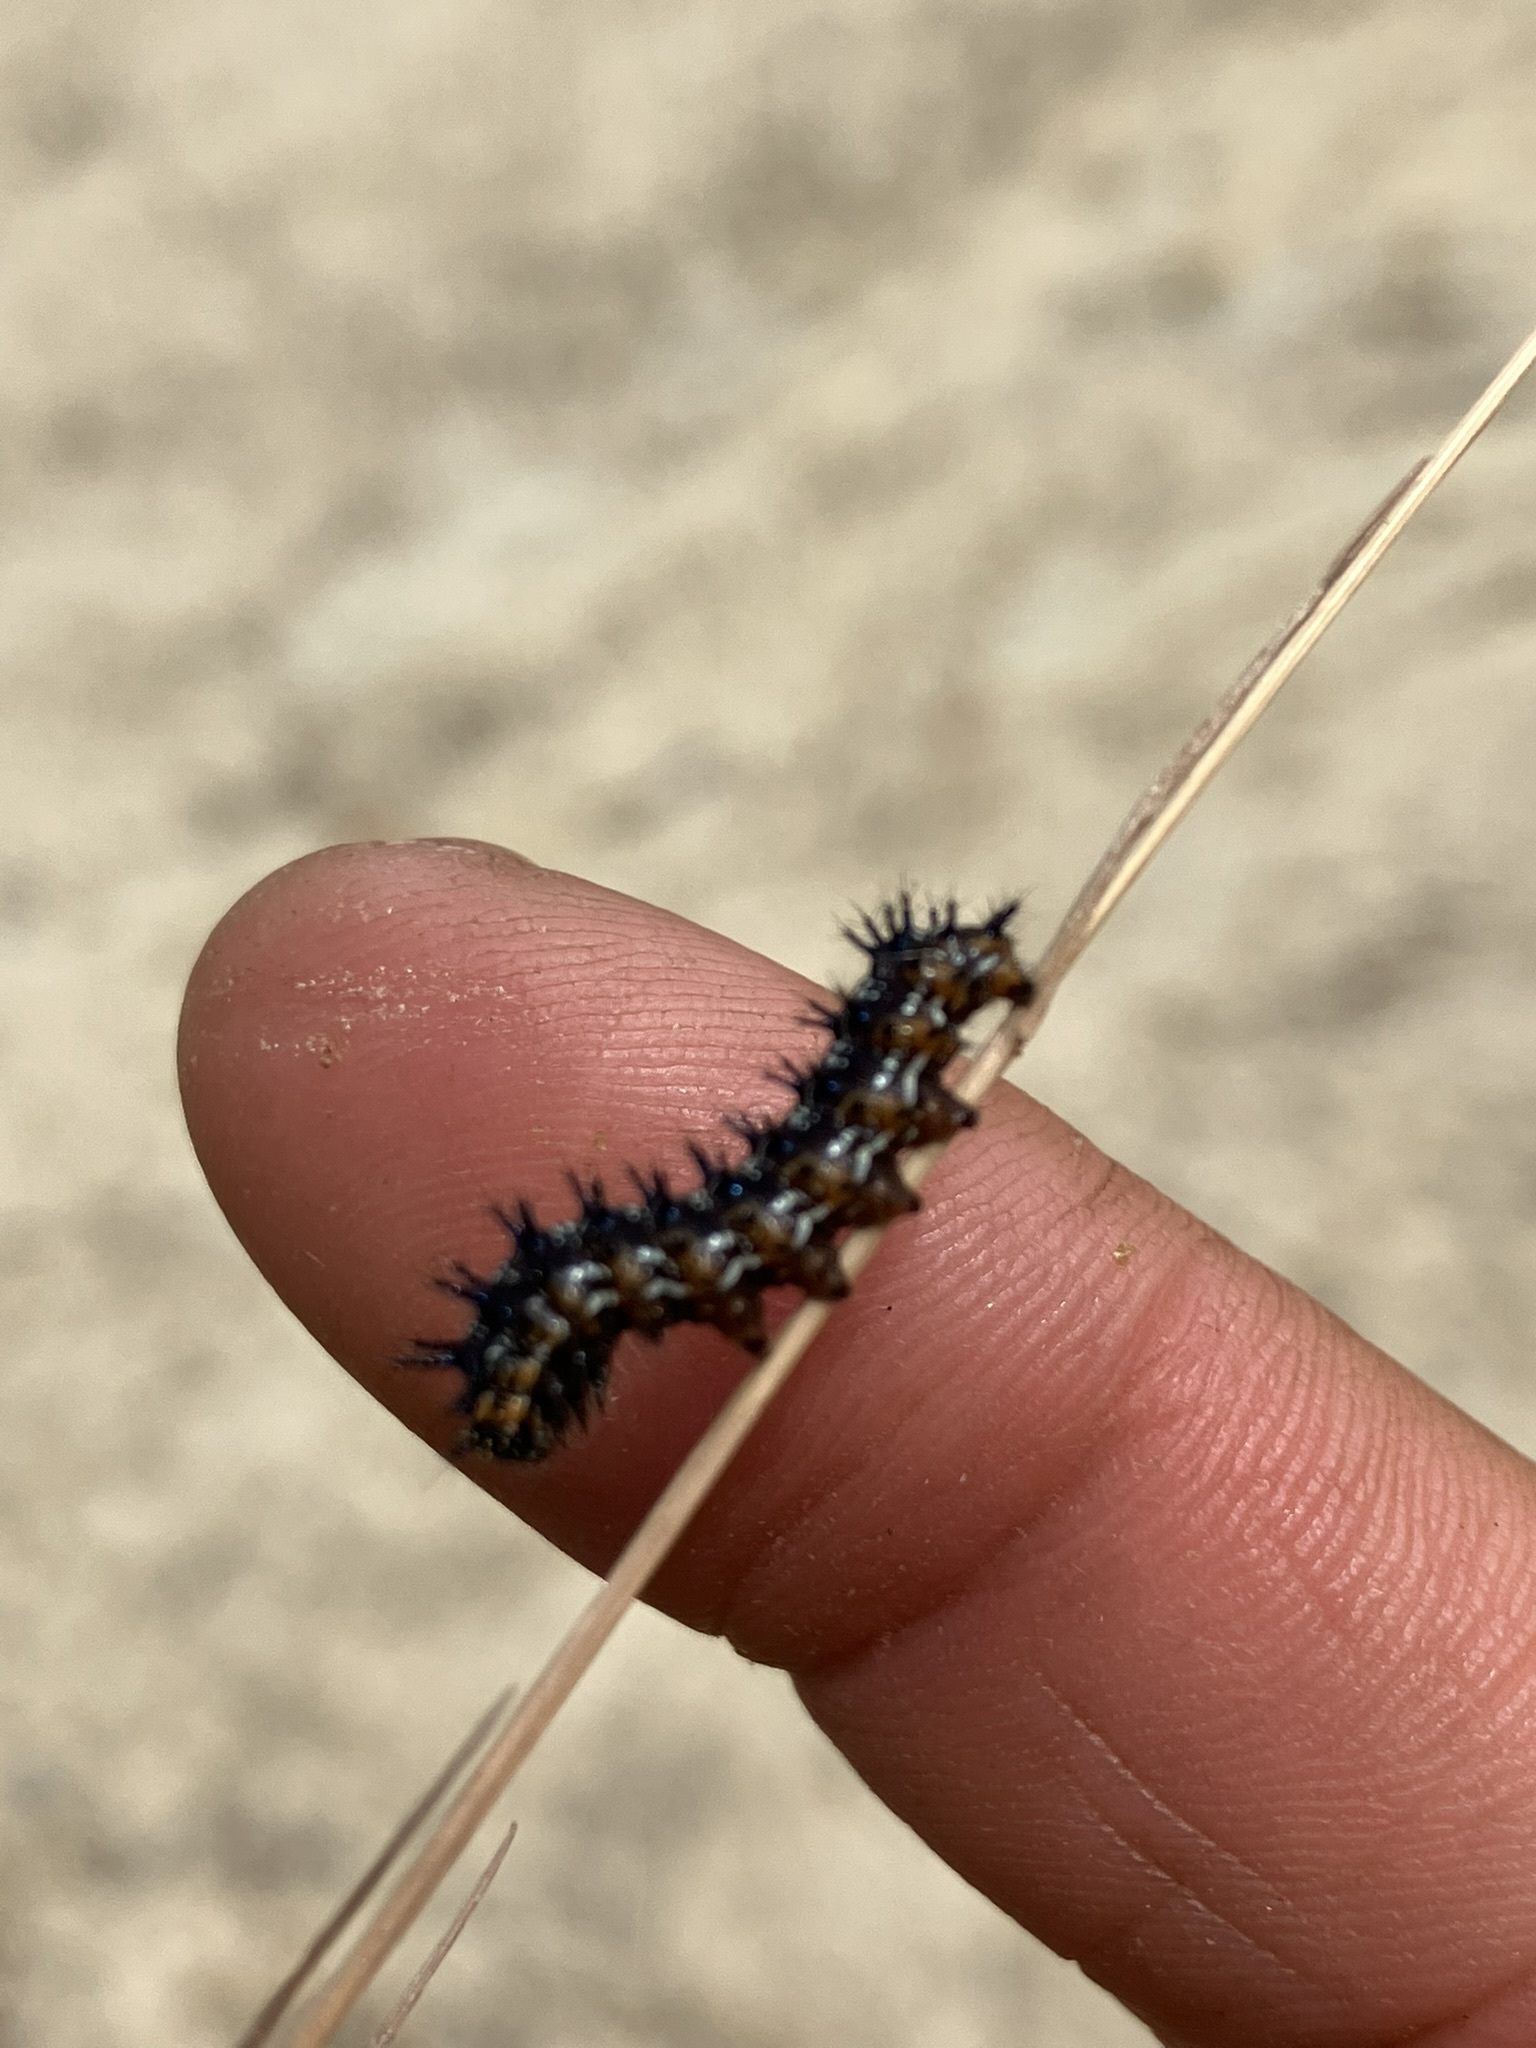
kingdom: Animalia
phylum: Arthropoda
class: Insecta
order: Lepidoptera
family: Nymphalidae
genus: Junonia
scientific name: Junonia grisea
